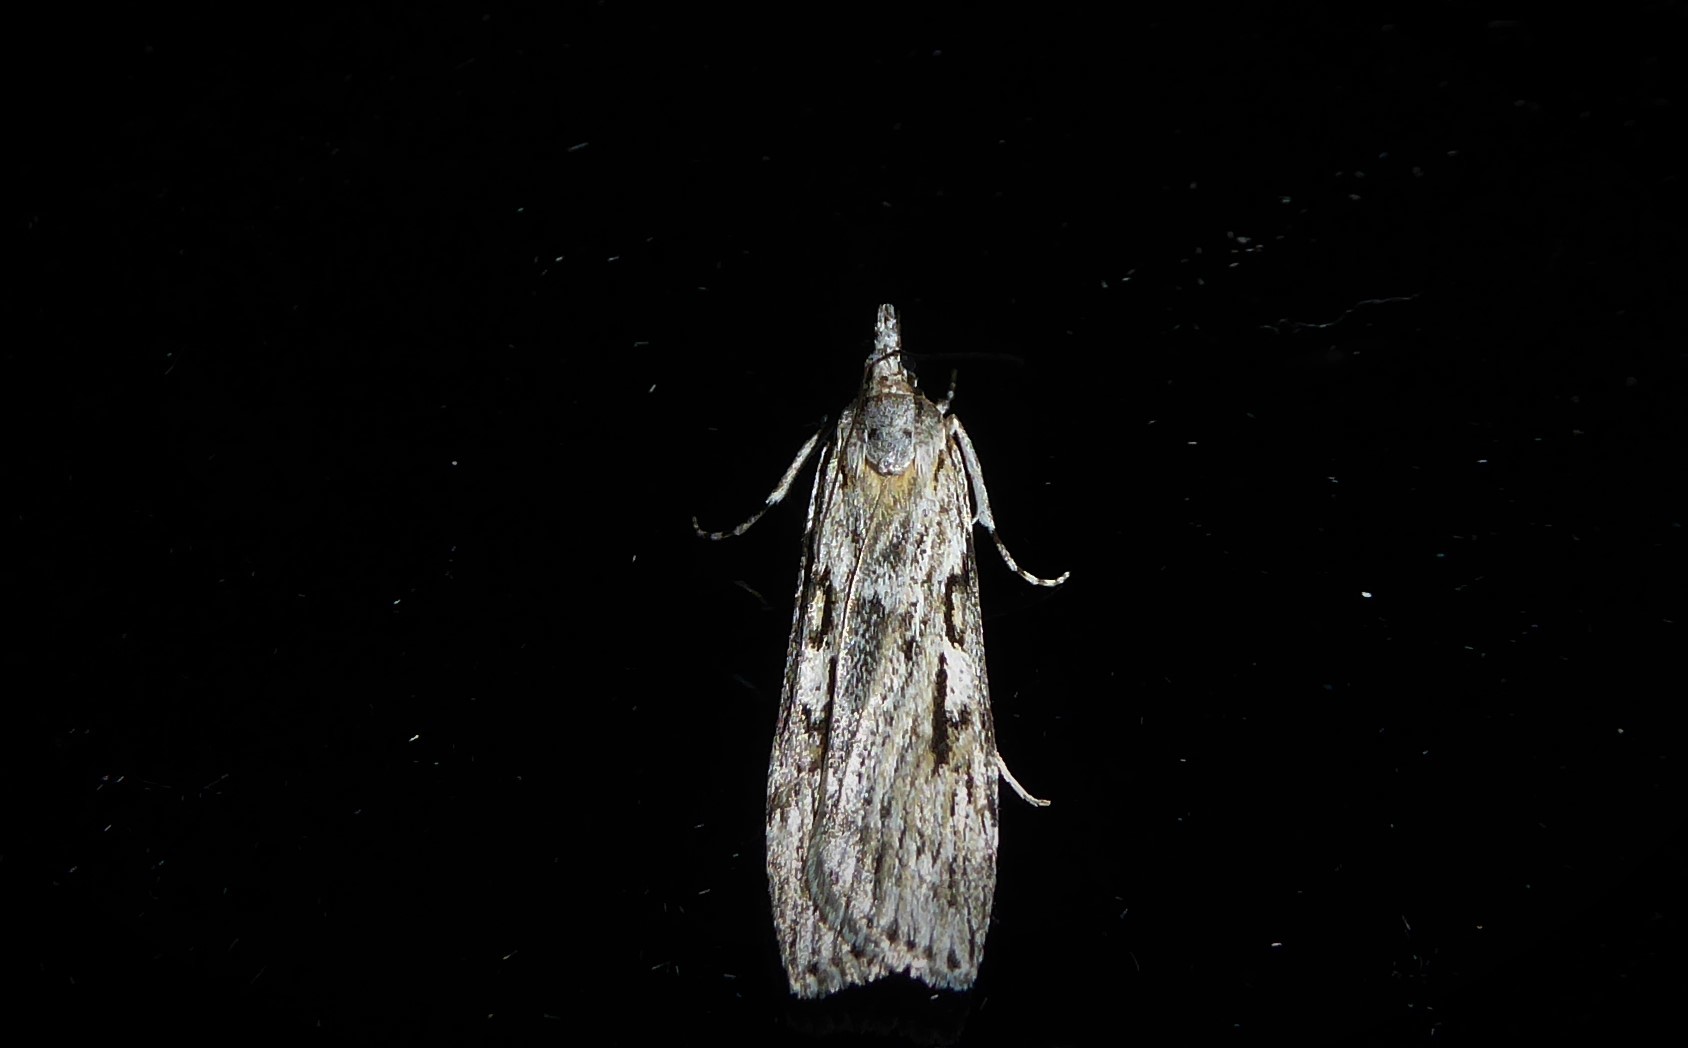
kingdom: Animalia
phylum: Arthropoda
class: Insecta
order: Lepidoptera
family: Crambidae
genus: Scoparia
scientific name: Scoparia halopis
